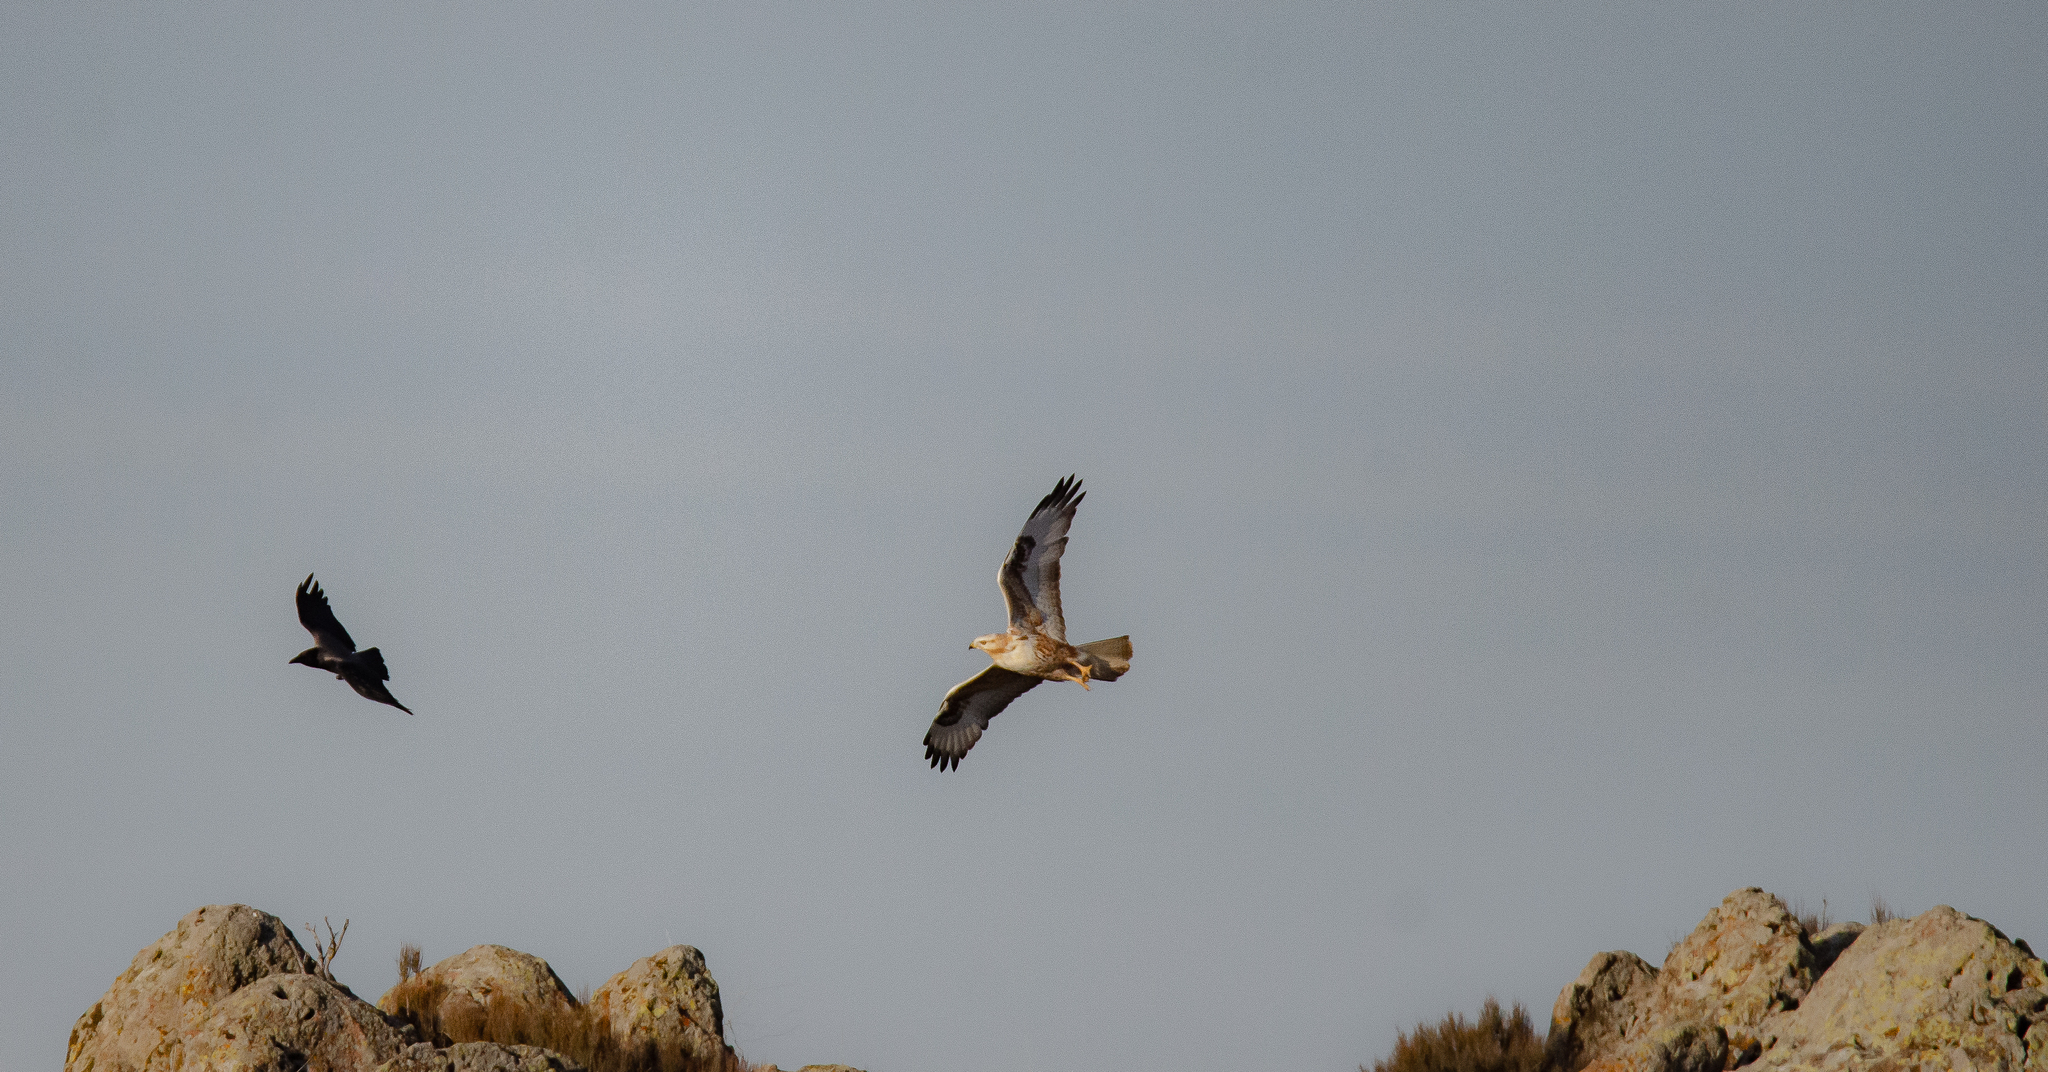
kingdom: Animalia
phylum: Chordata
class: Aves
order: Accipitriformes
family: Accipitridae
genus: Buteo
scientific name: Buteo rufinus
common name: Long-legged buzzard
